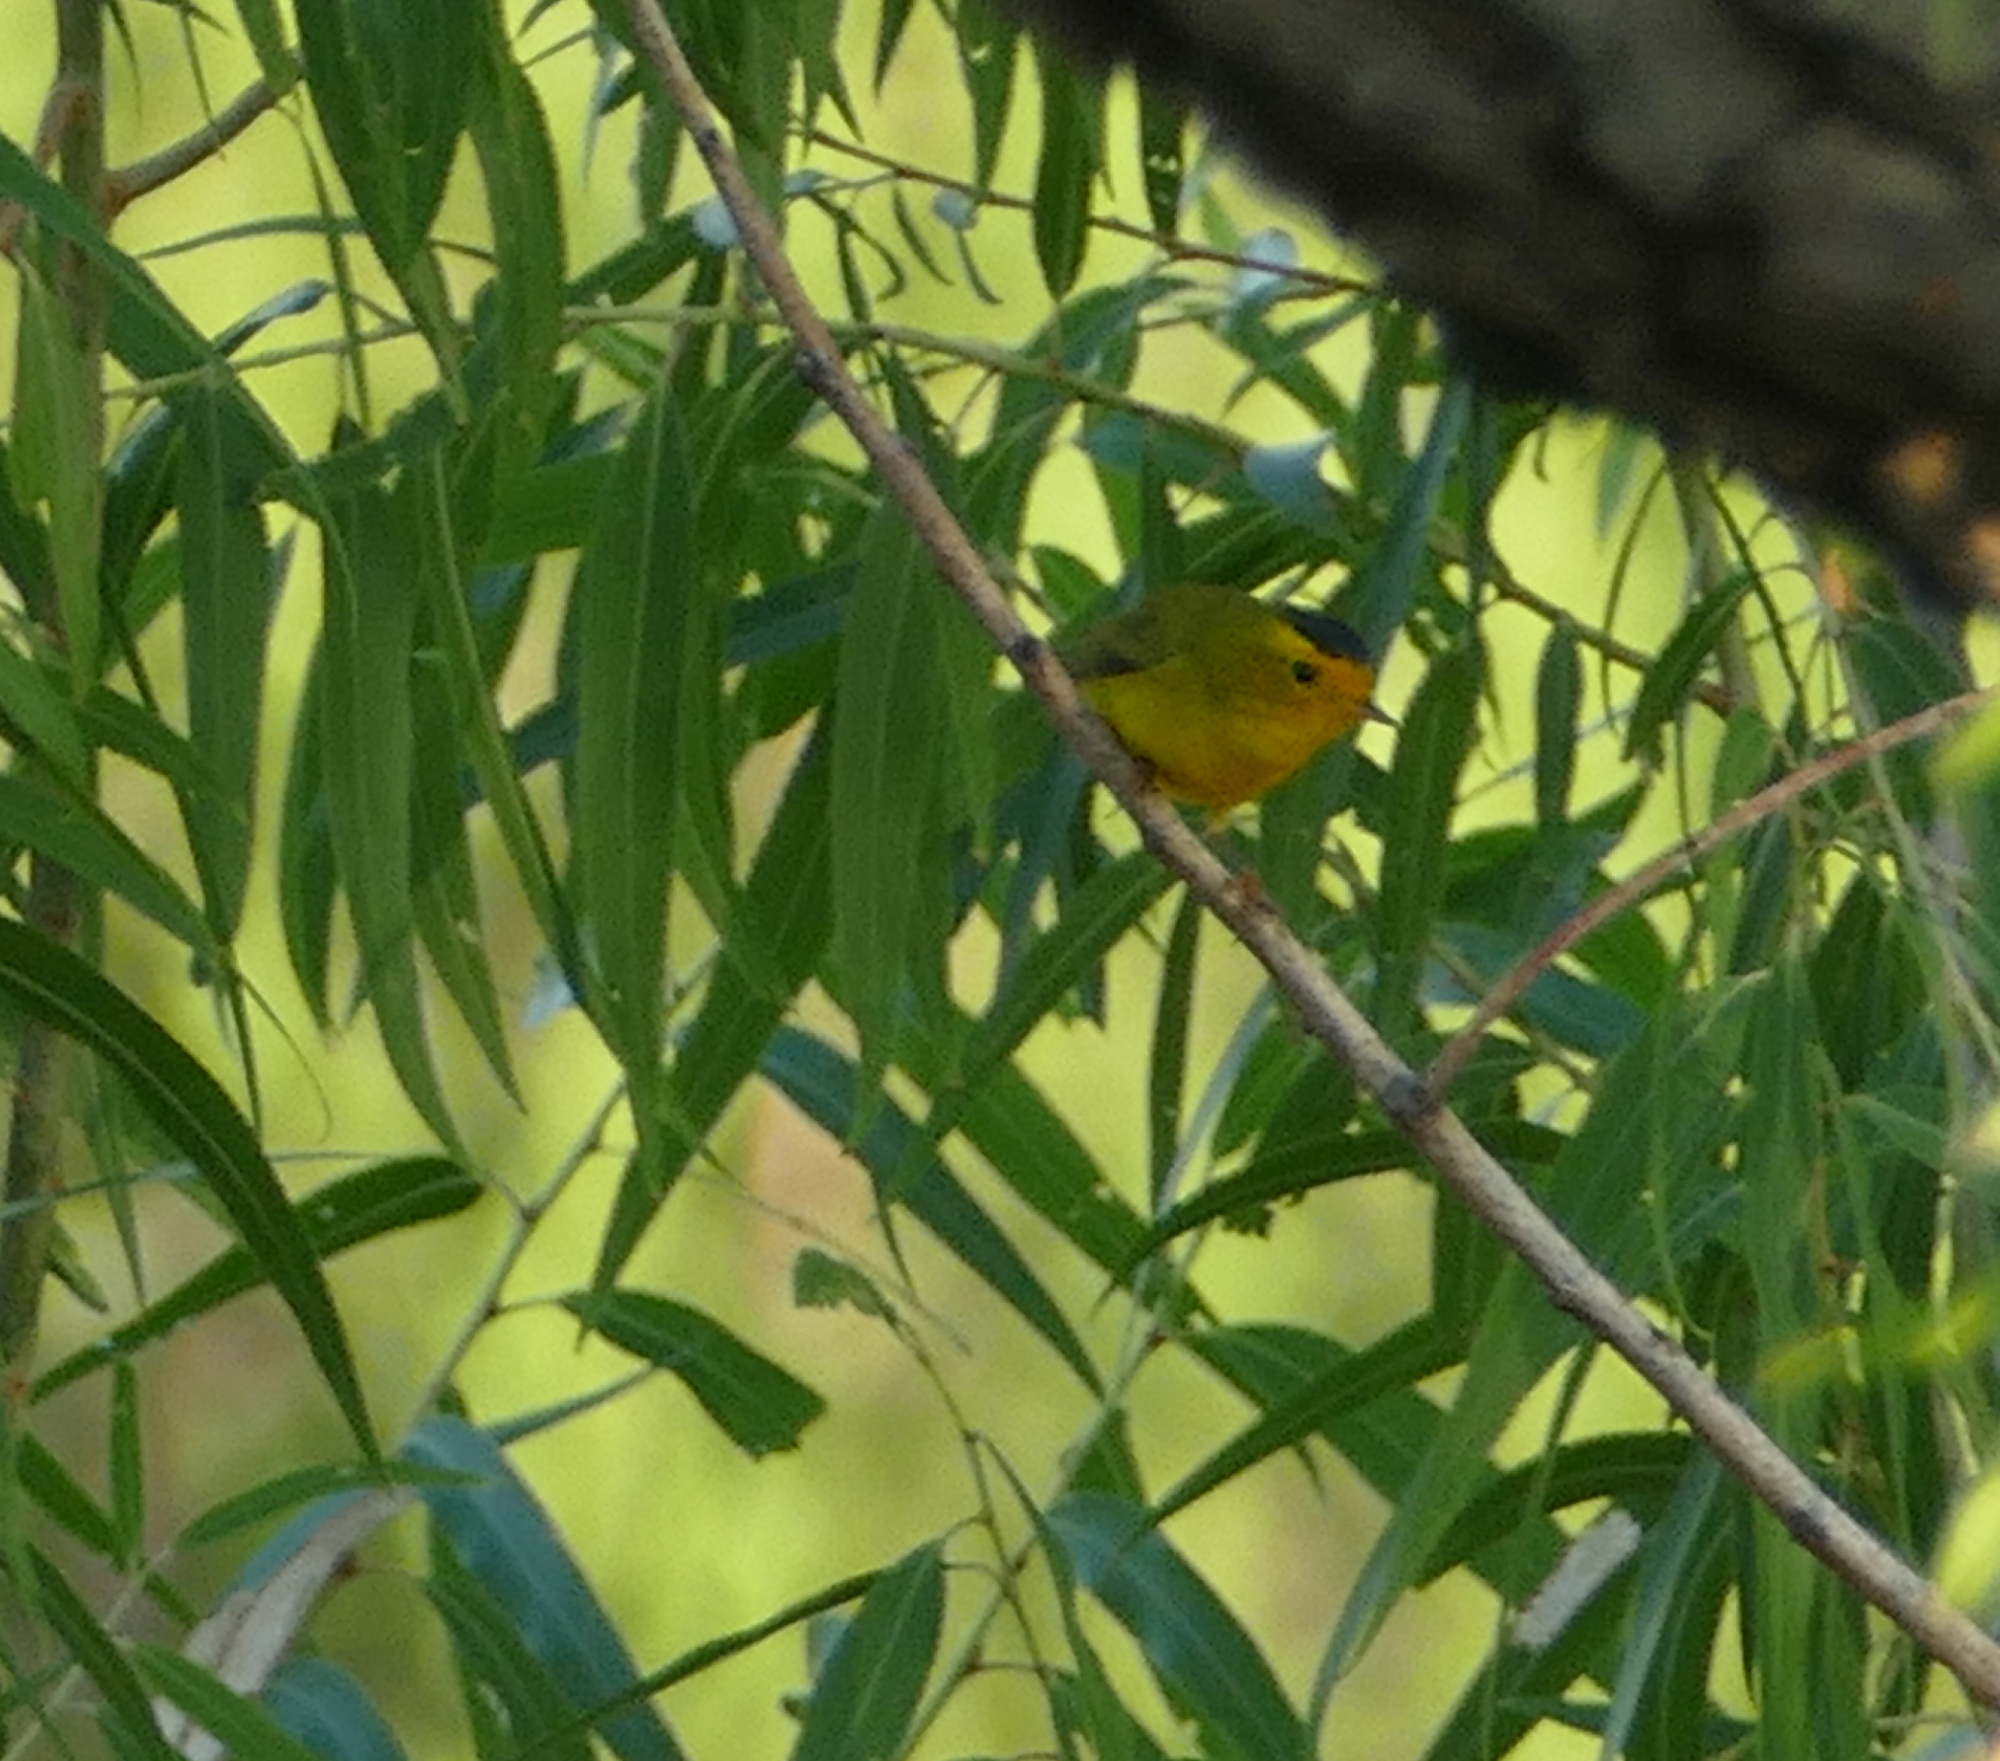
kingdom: Animalia
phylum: Chordata
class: Aves
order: Passeriformes
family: Parulidae
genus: Cardellina
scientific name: Cardellina pusilla
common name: Wilson's warbler
